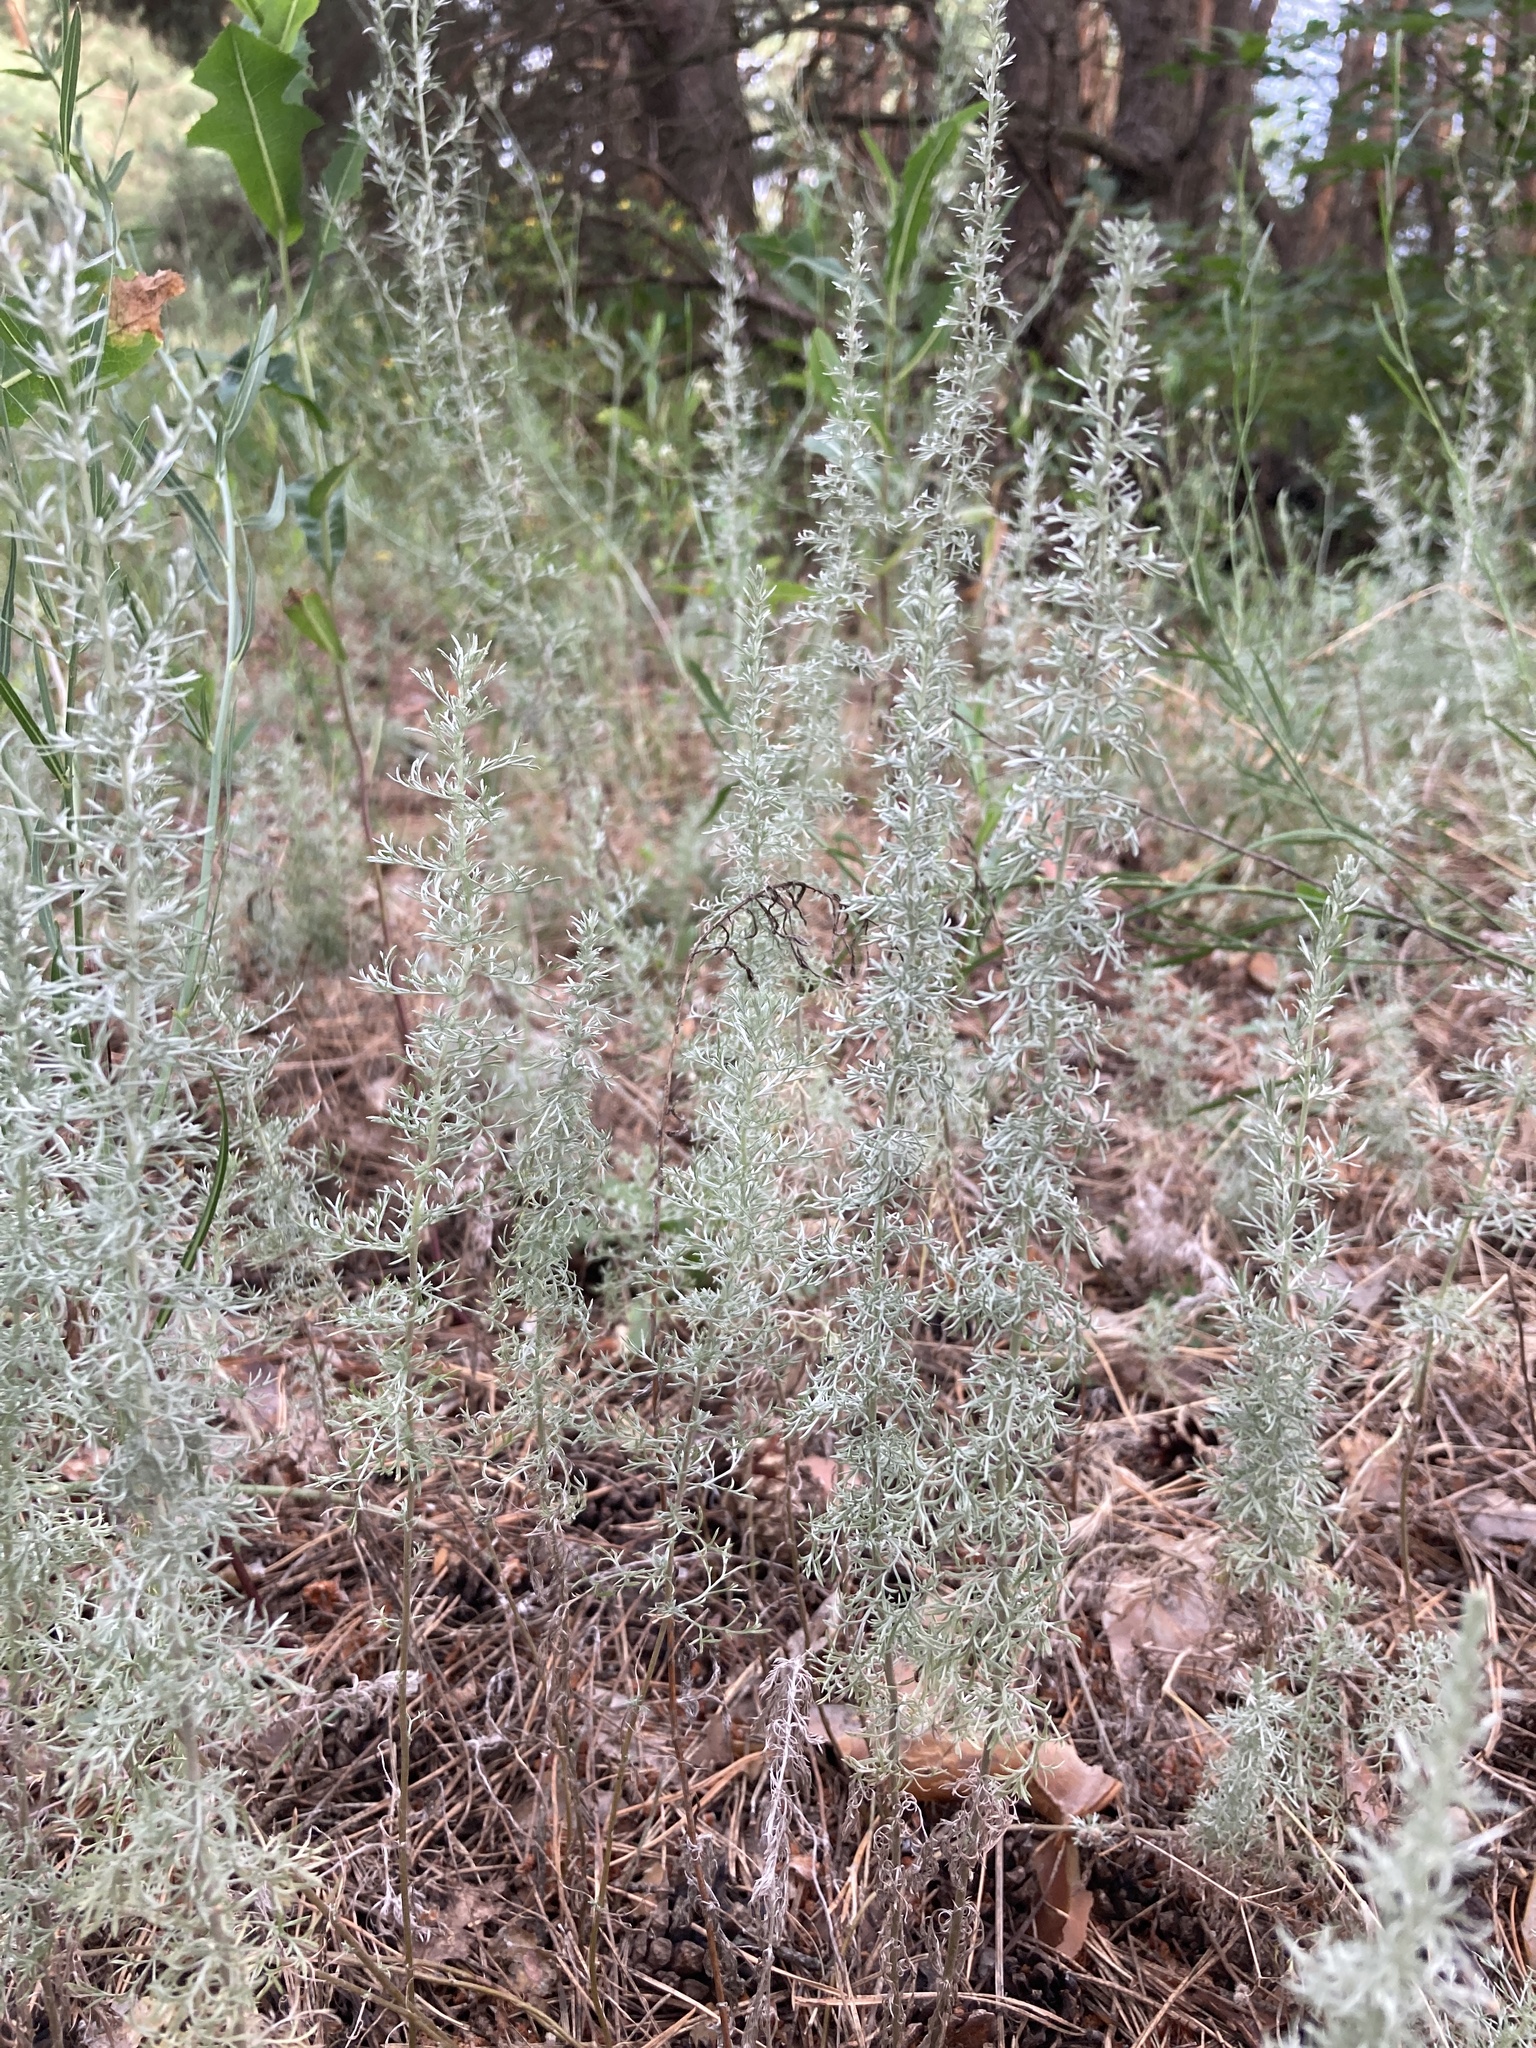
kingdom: Plantae
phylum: Tracheophyta
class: Magnoliopsida
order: Asterales
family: Asteraceae
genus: Artemisia
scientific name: Artemisia austriaca
